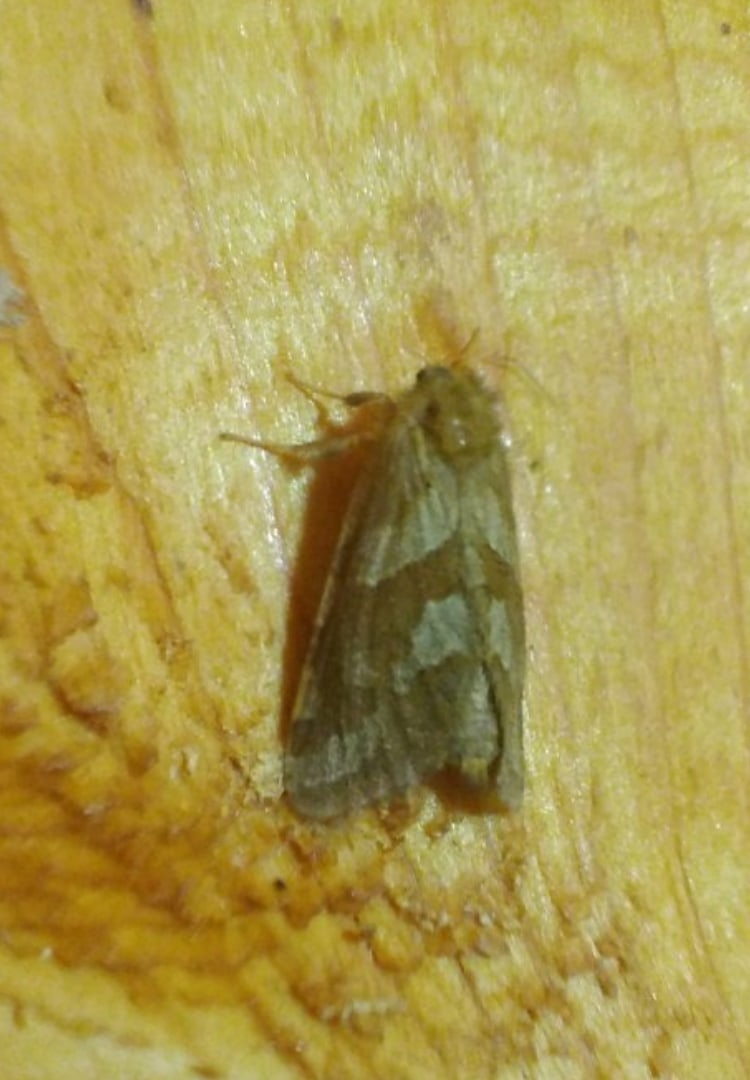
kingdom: Animalia
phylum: Arthropoda
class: Insecta
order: Lepidoptera
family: Hepialidae
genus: Phymatopus
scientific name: Phymatopus hecta
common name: Gold swift
